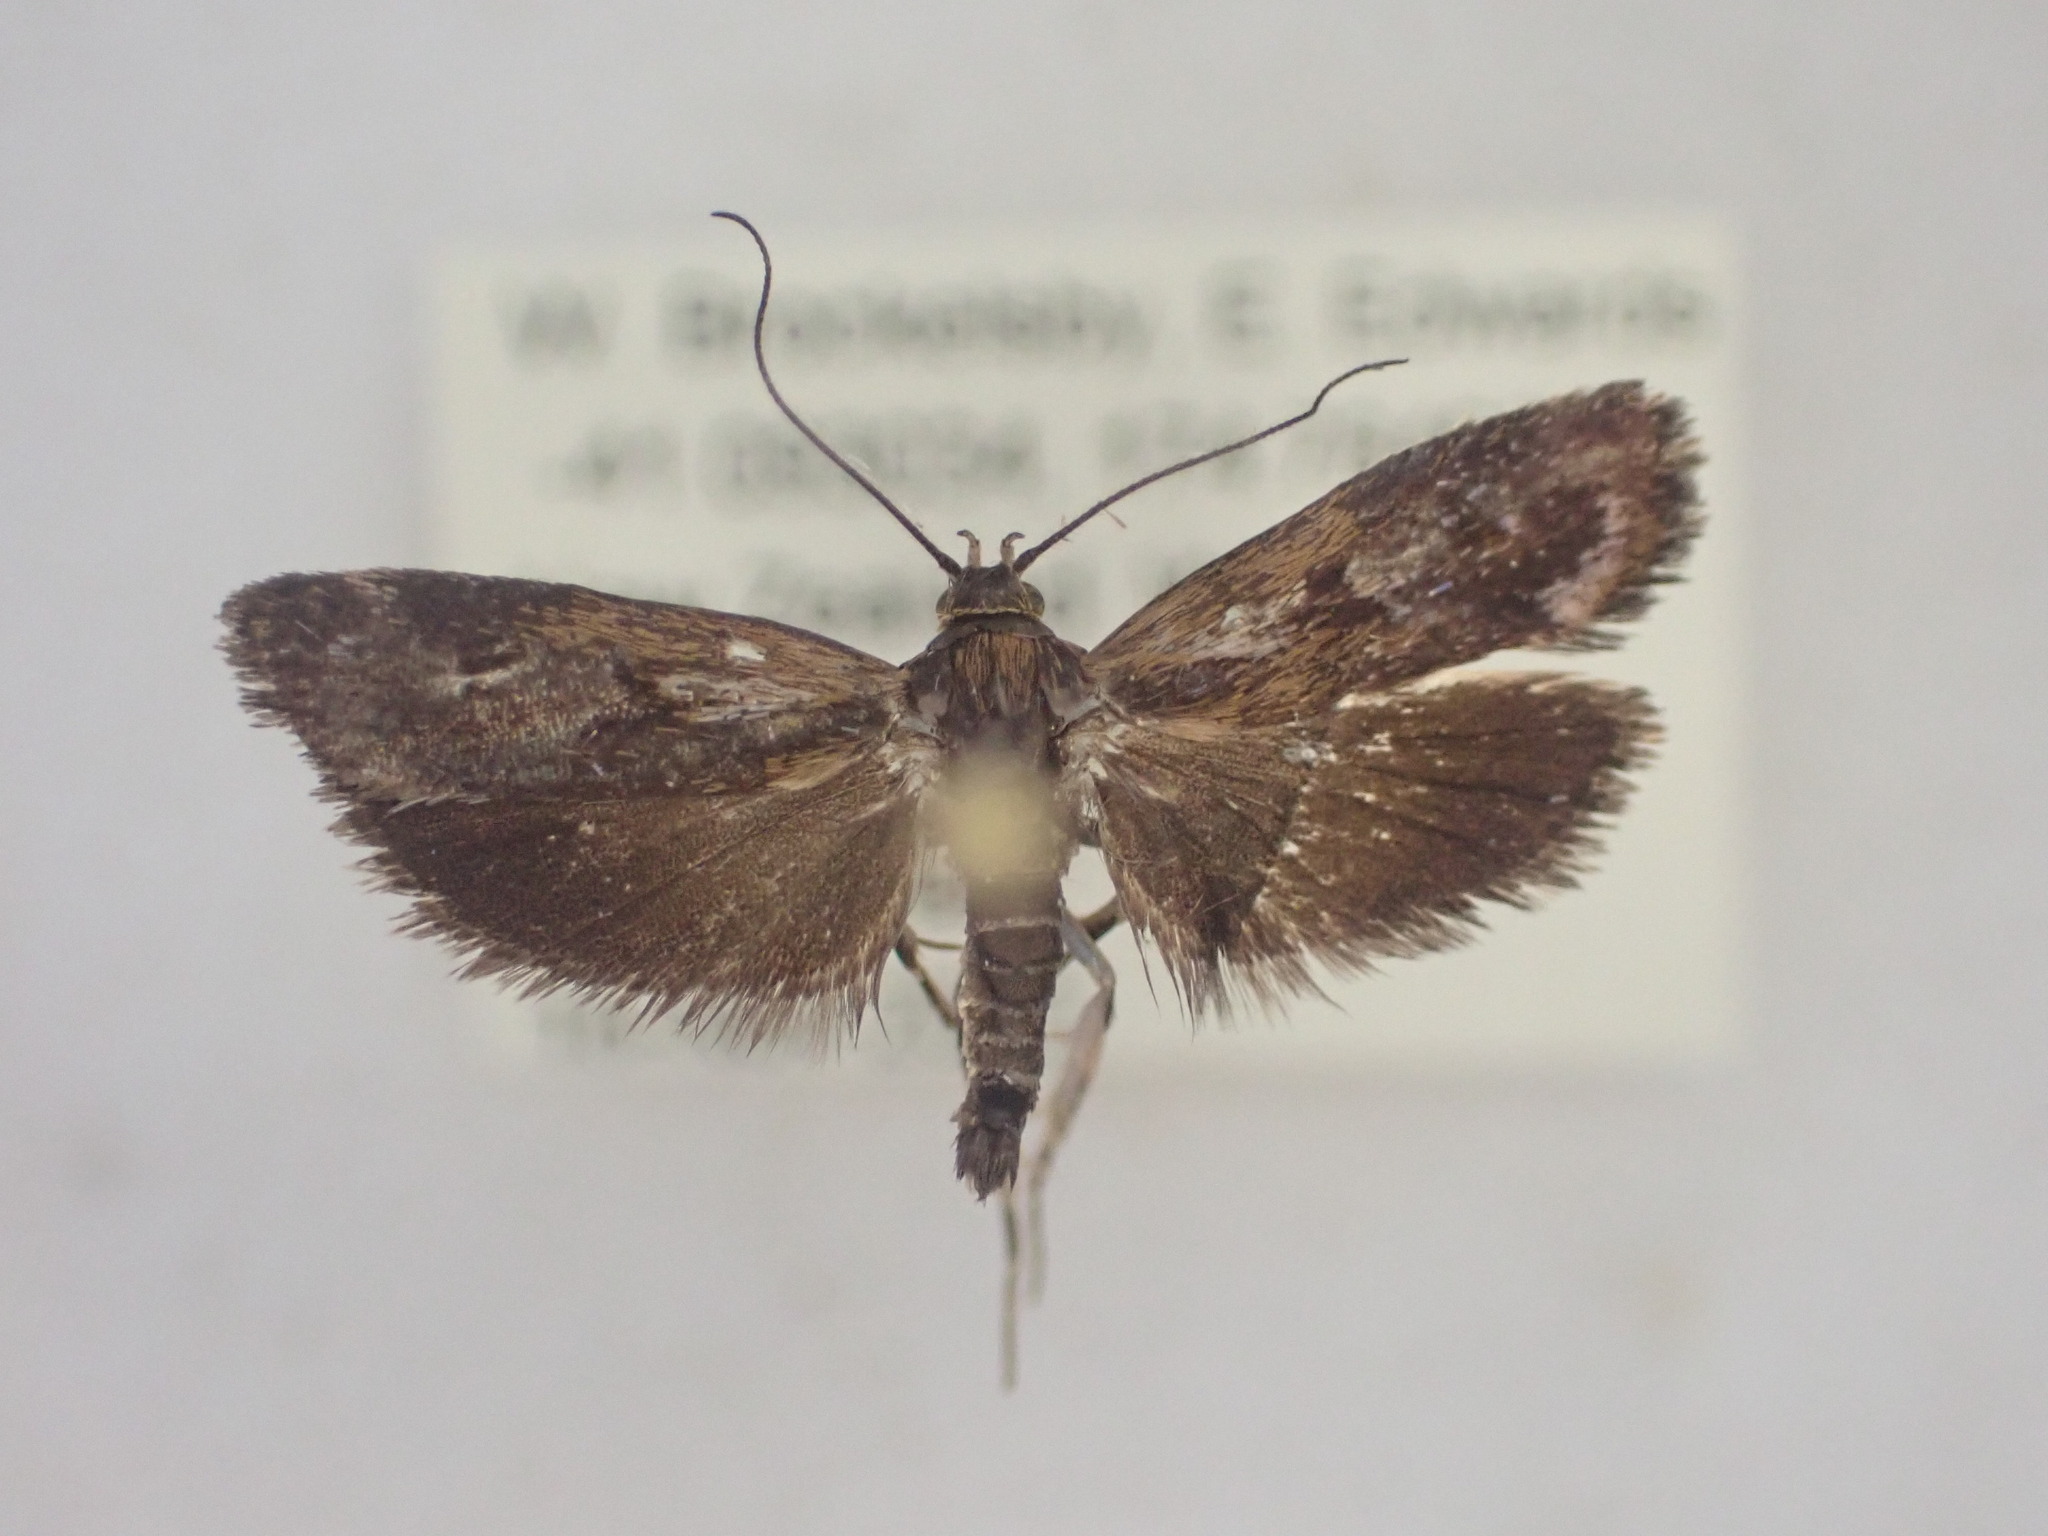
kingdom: Animalia
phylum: Arthropoda
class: Insecta
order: Lepidoptera
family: Oecophoridae
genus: Hierodoris
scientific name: Hierodoris atychioides
